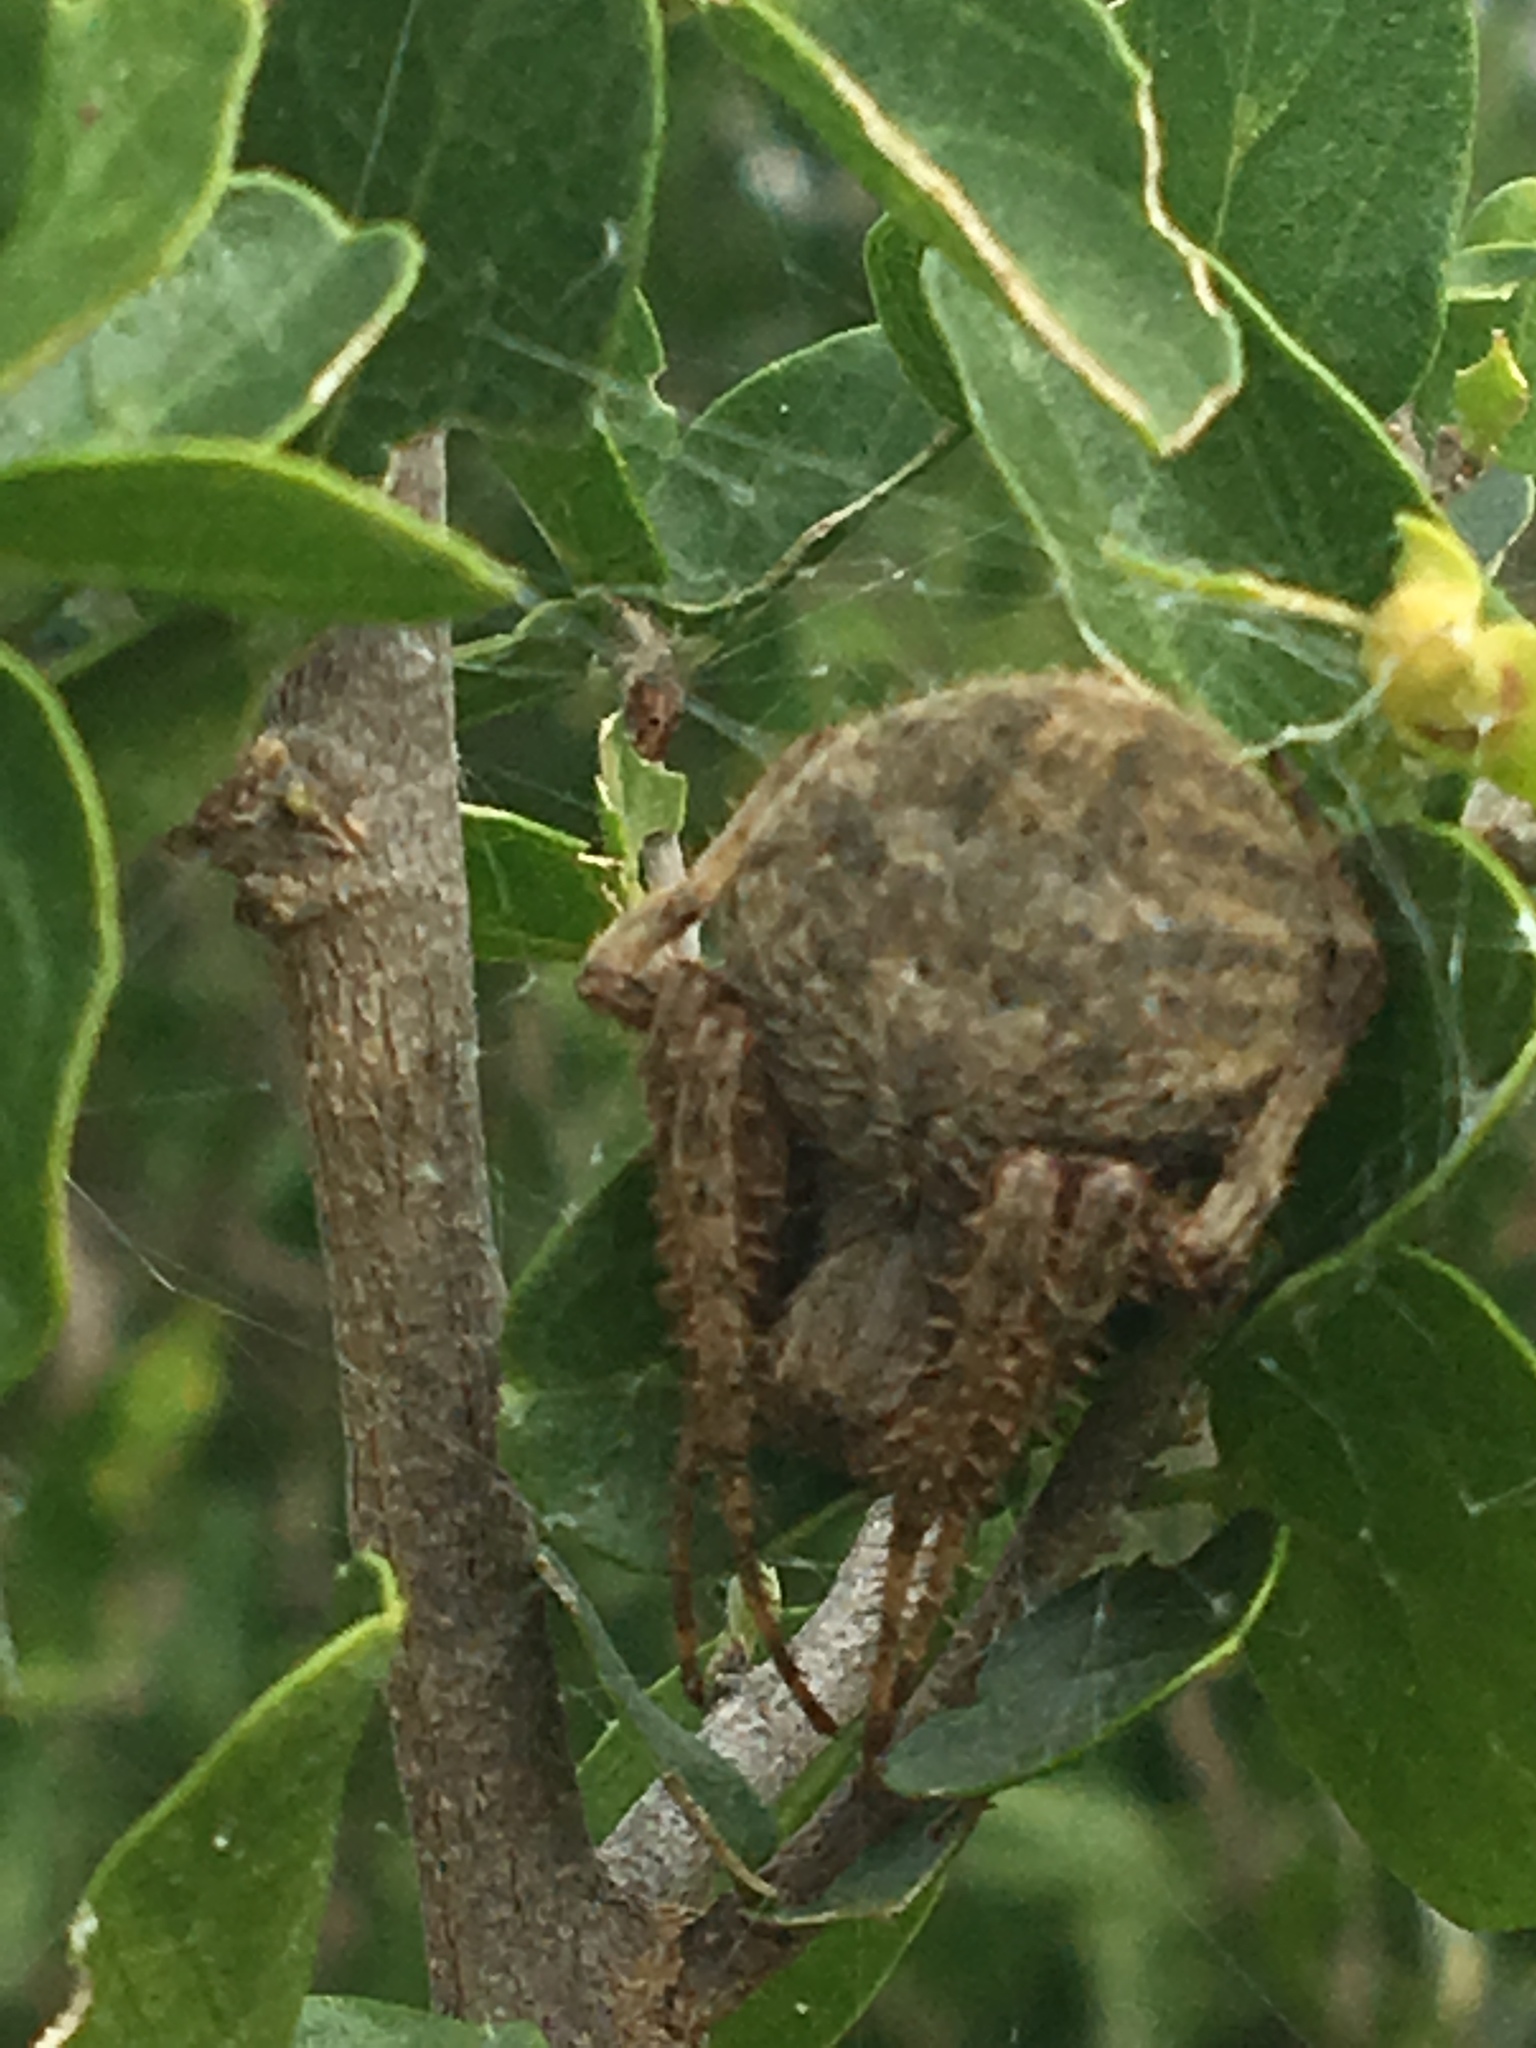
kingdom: Animalia
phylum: Arthropoda
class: Arachnida
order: Araneae
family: Araneidae
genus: Neoscona
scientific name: Neoscona crucifera
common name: Spotted orbweaver
